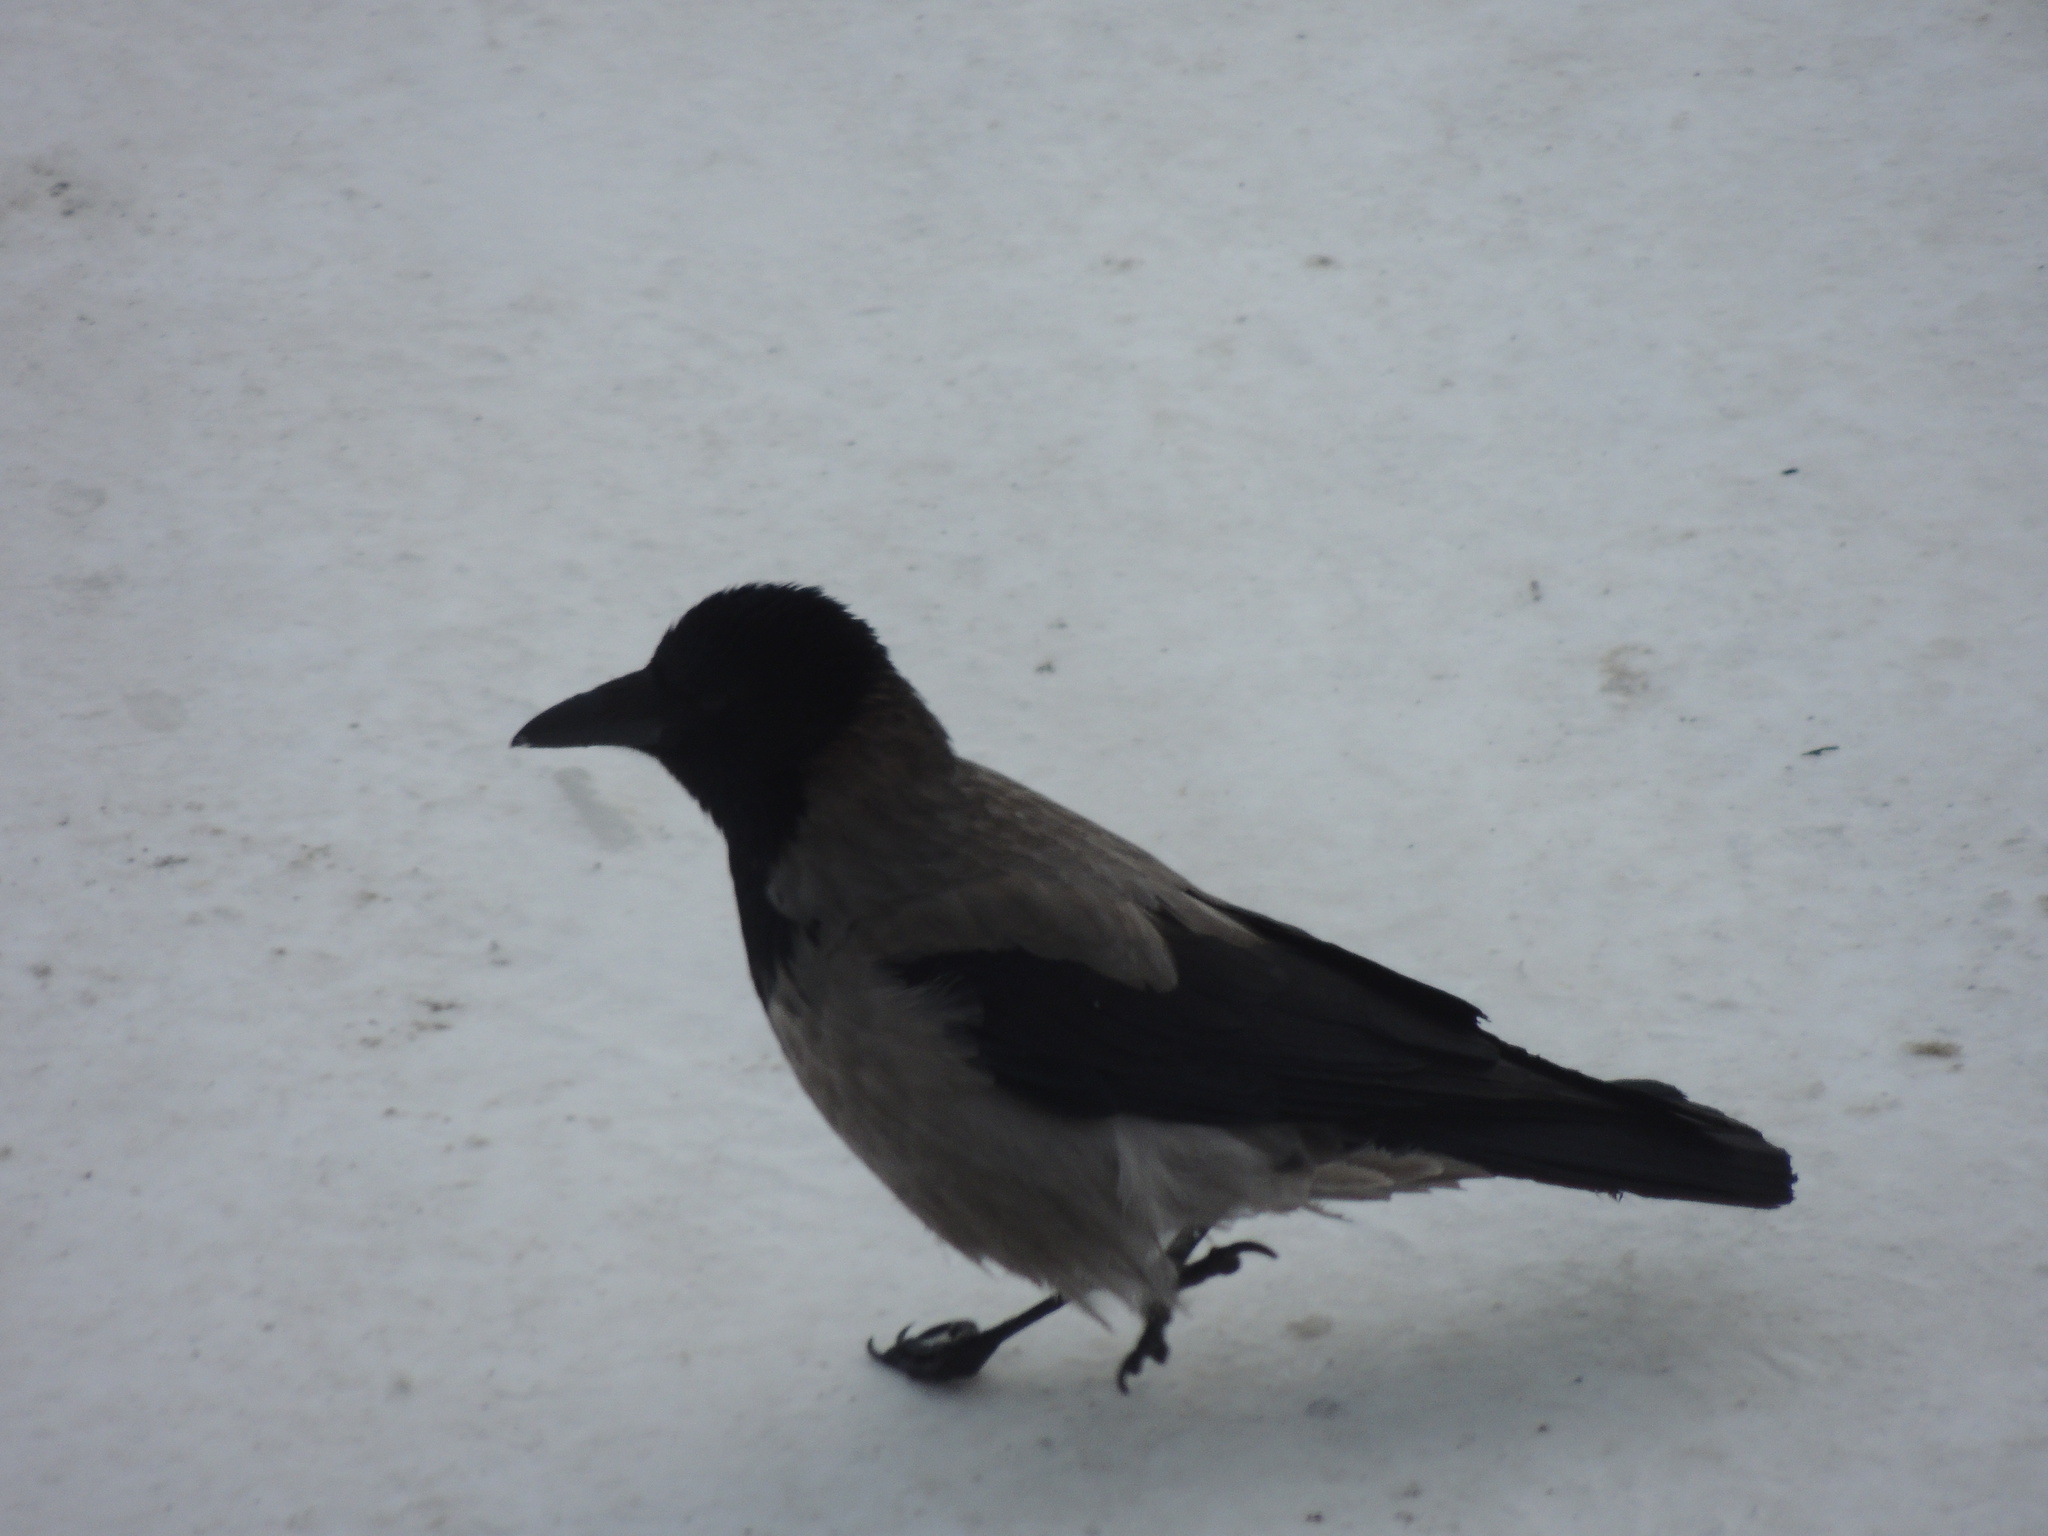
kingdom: Animalia
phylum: Chordata
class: Aves
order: Passeriformes
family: Corvidae
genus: Corvus
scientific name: Corvus cornix
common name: Hooded crow
